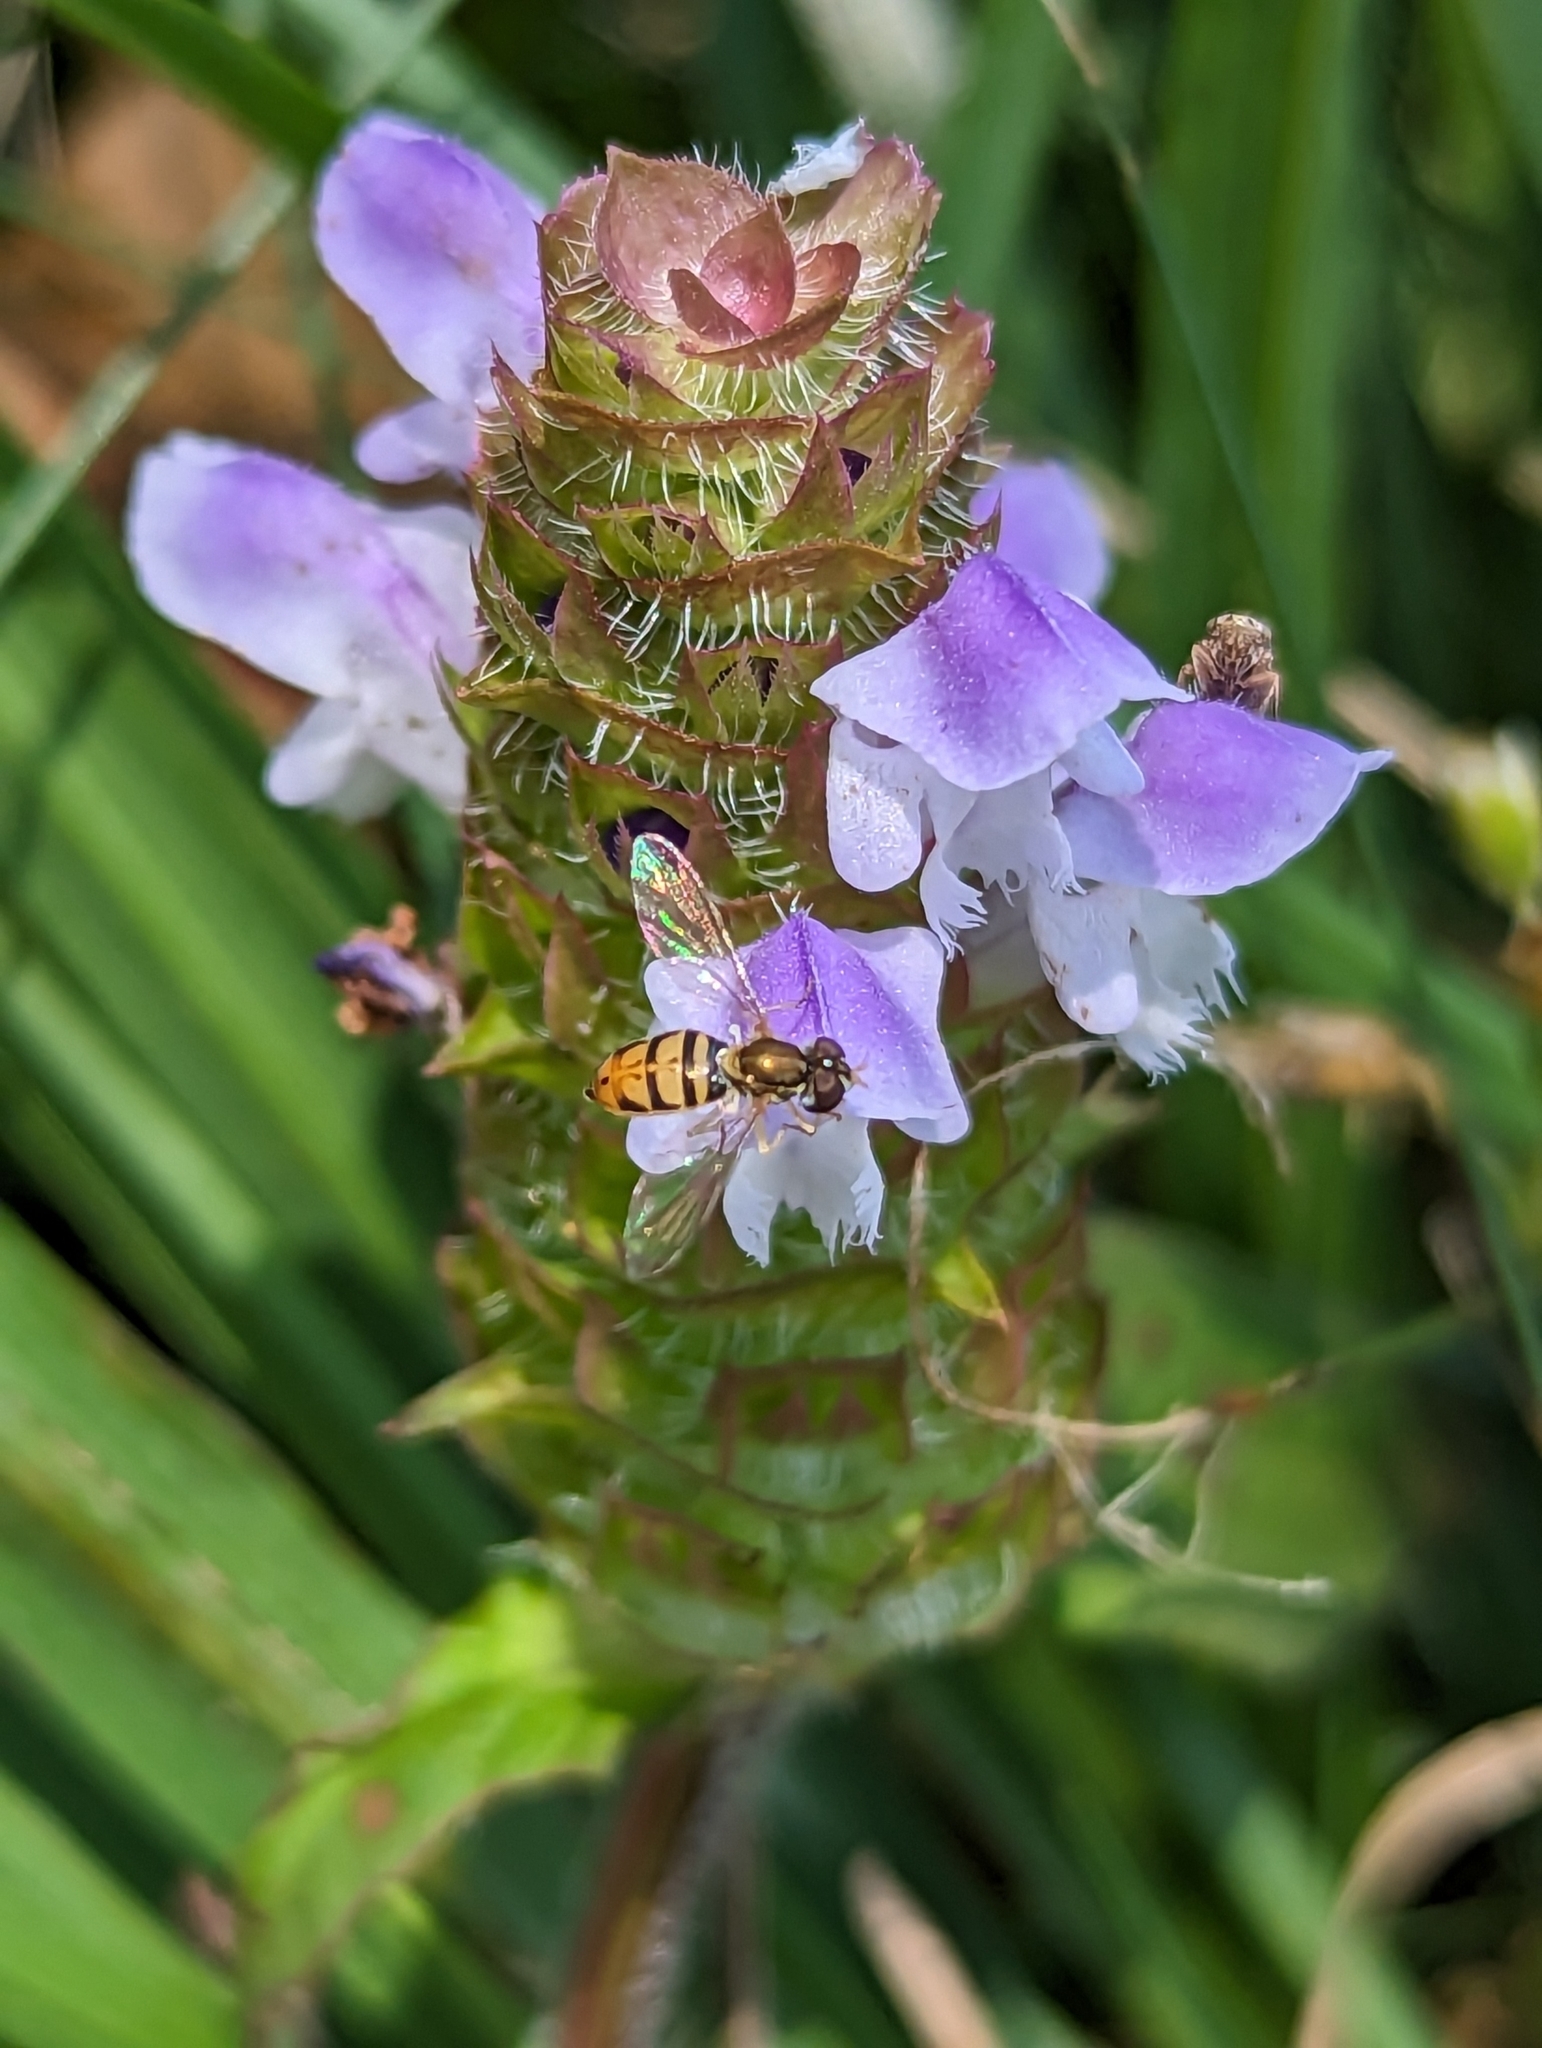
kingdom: Animalia
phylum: Arthropoda
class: Insecta
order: Diptera
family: Syrphidae
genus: Toxomerus
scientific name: Toxomerus marginatus
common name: Syrphid fly
